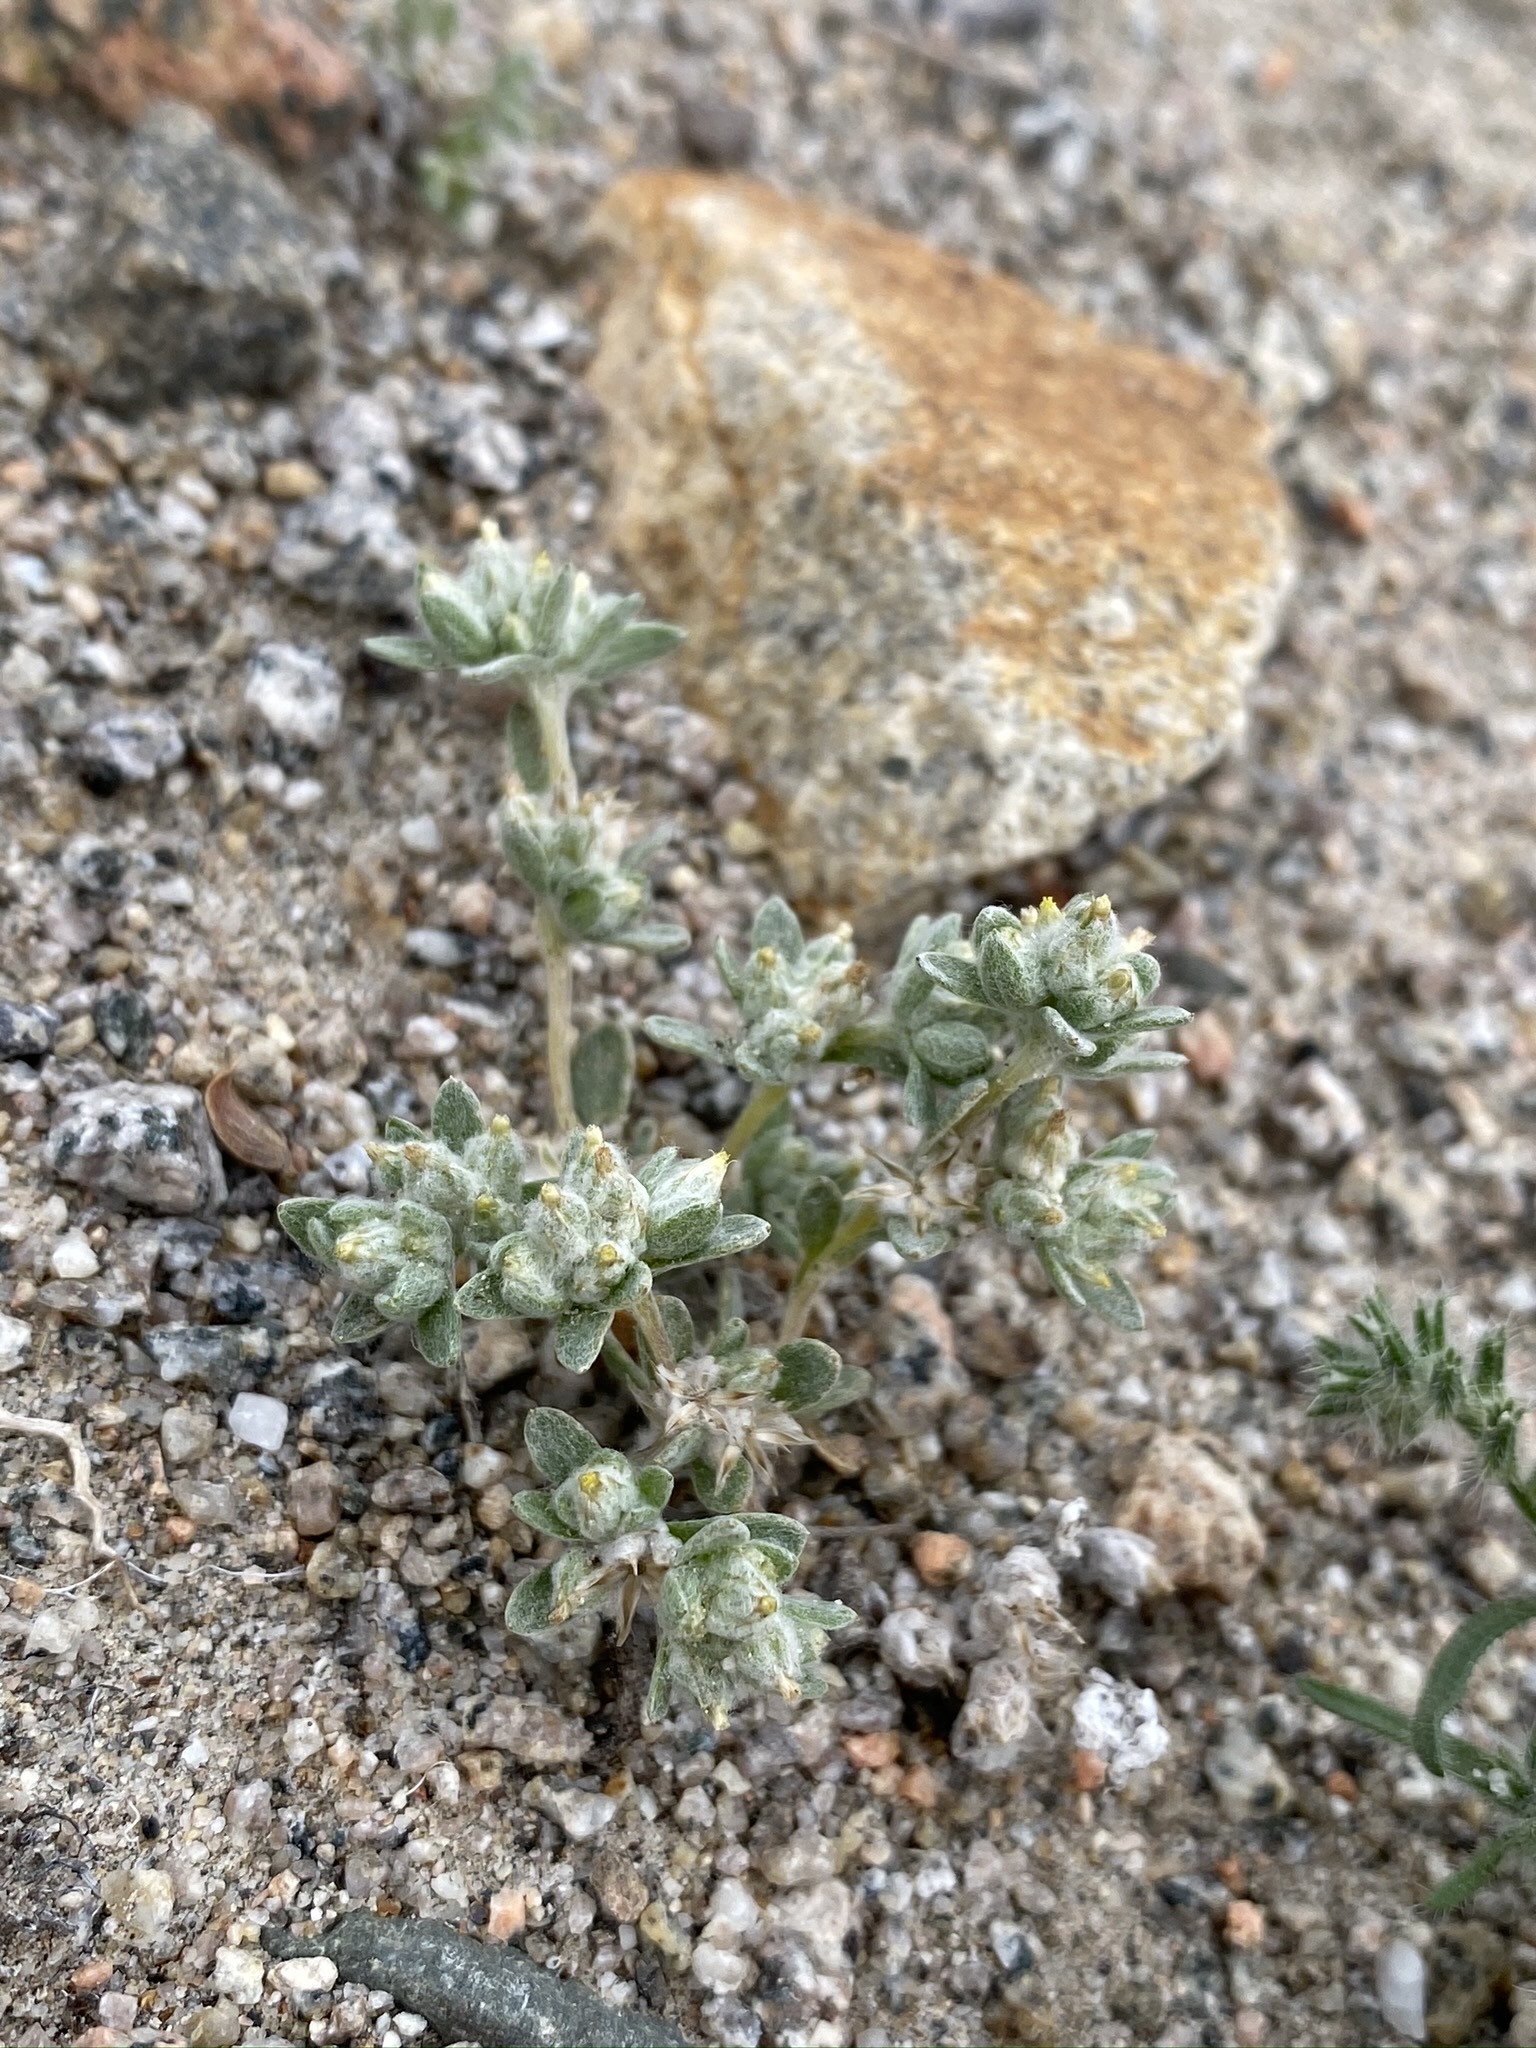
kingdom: Plantae
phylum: Tracheophyta
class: Magnoliopsida
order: Asterales
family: Asteraceae
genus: Logfia
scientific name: Logfia depressa
